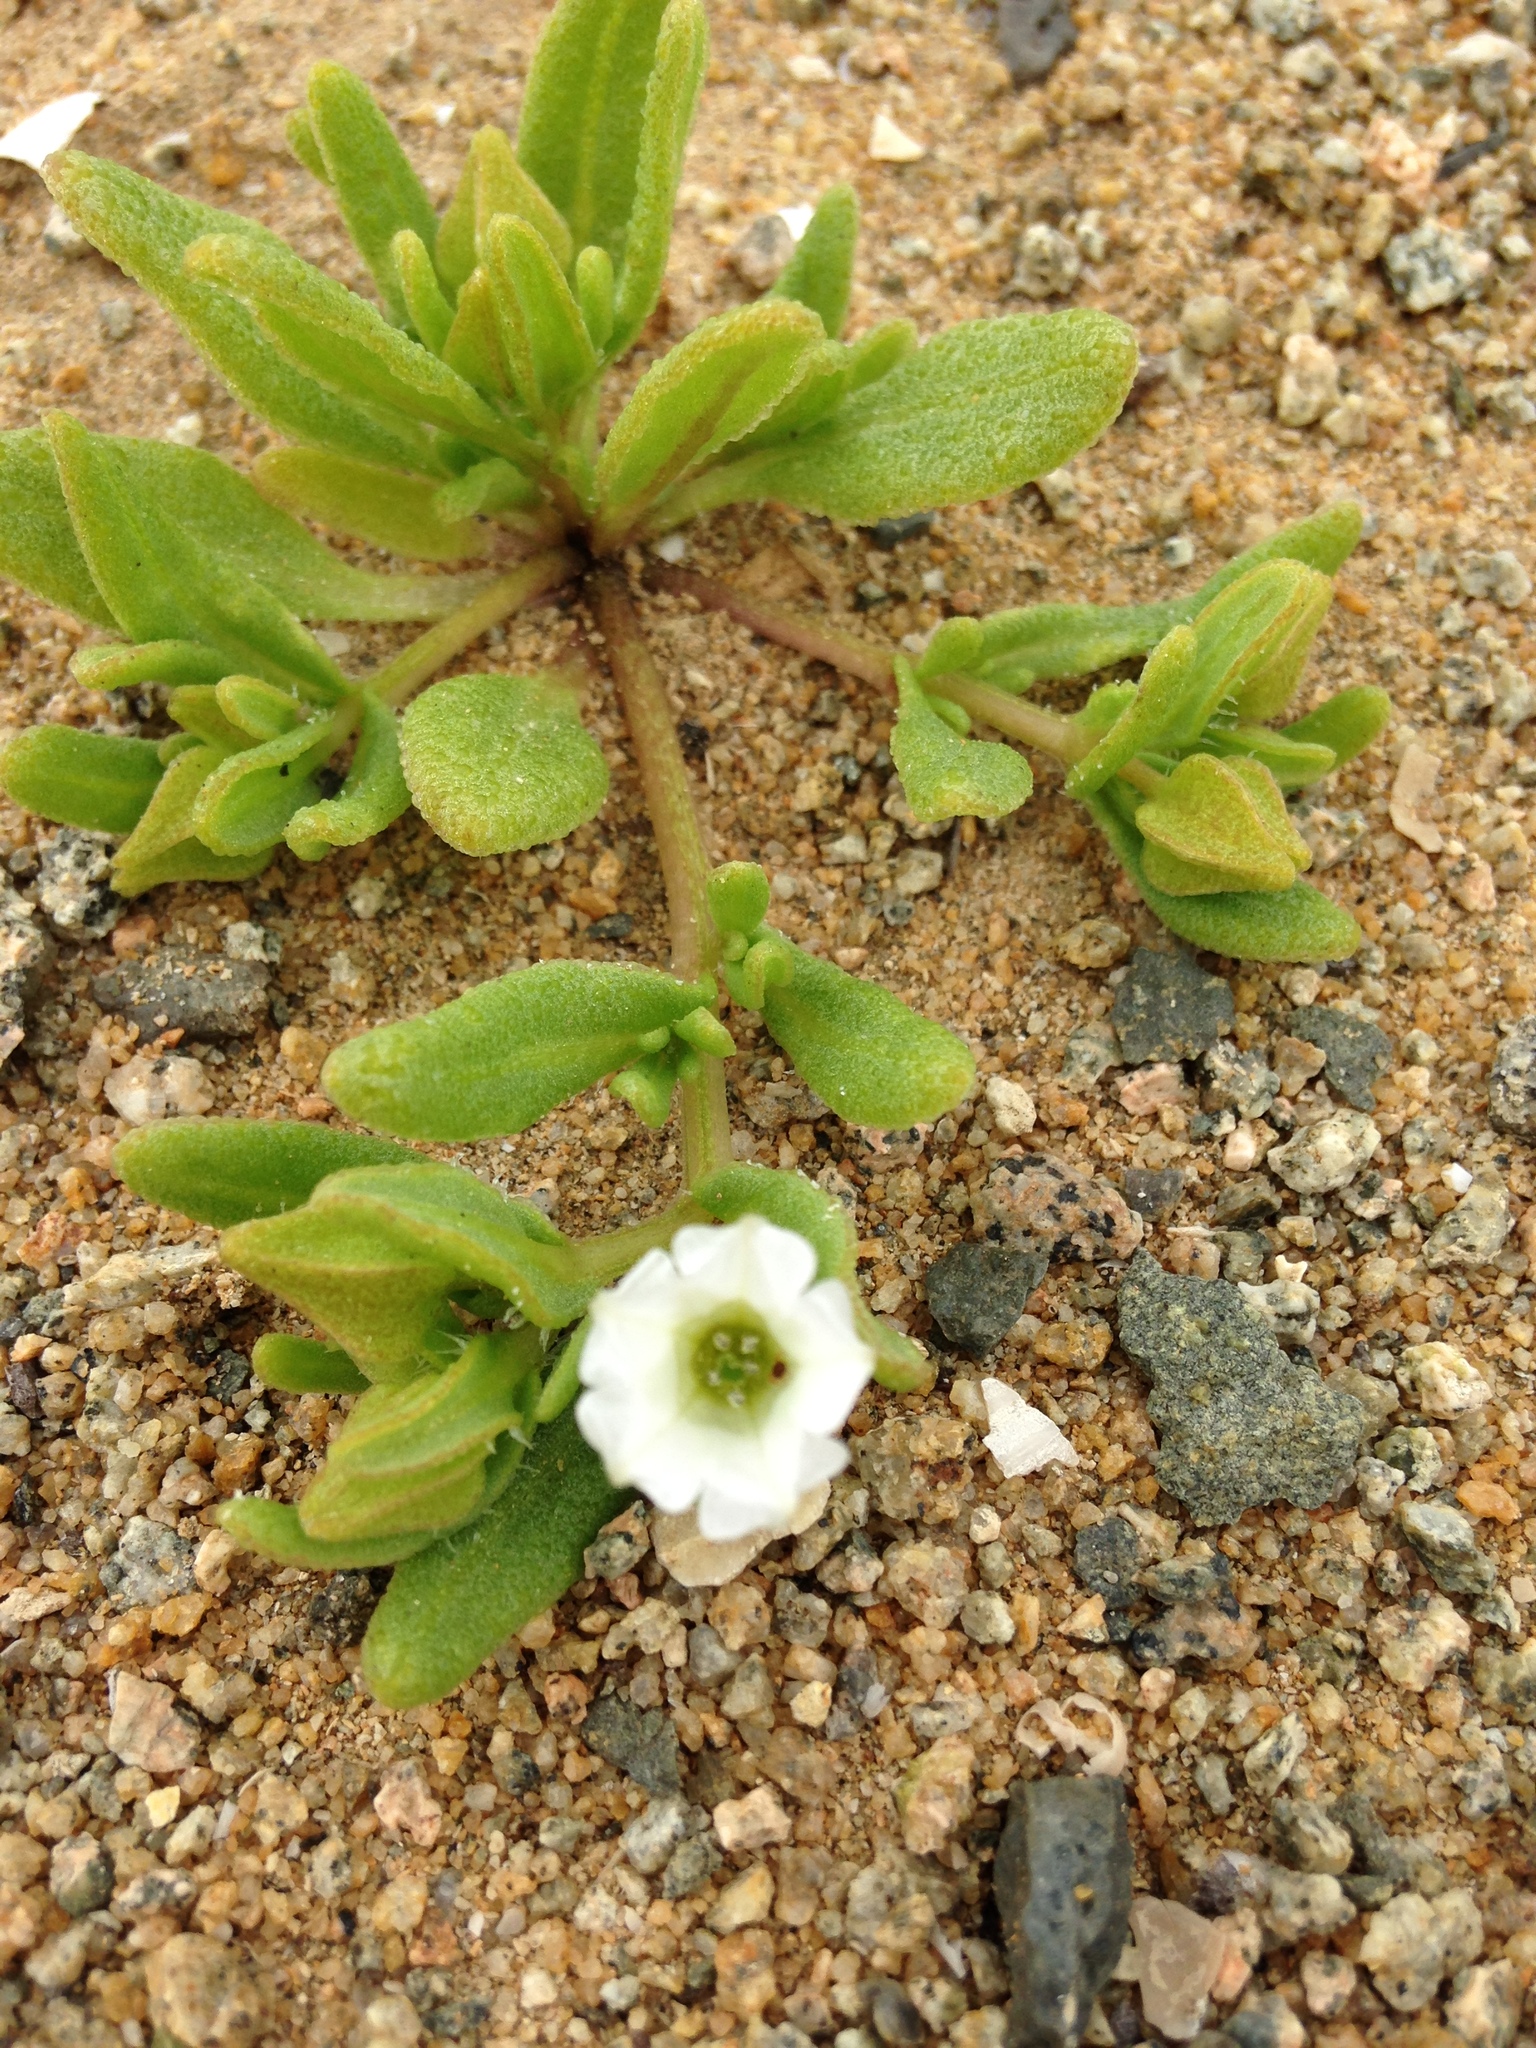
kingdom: Plantae
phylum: Tracheophyta
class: Magnoliopsida
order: Solanales
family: Solanaceae
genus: Nolana
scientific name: Nolana parviflora
